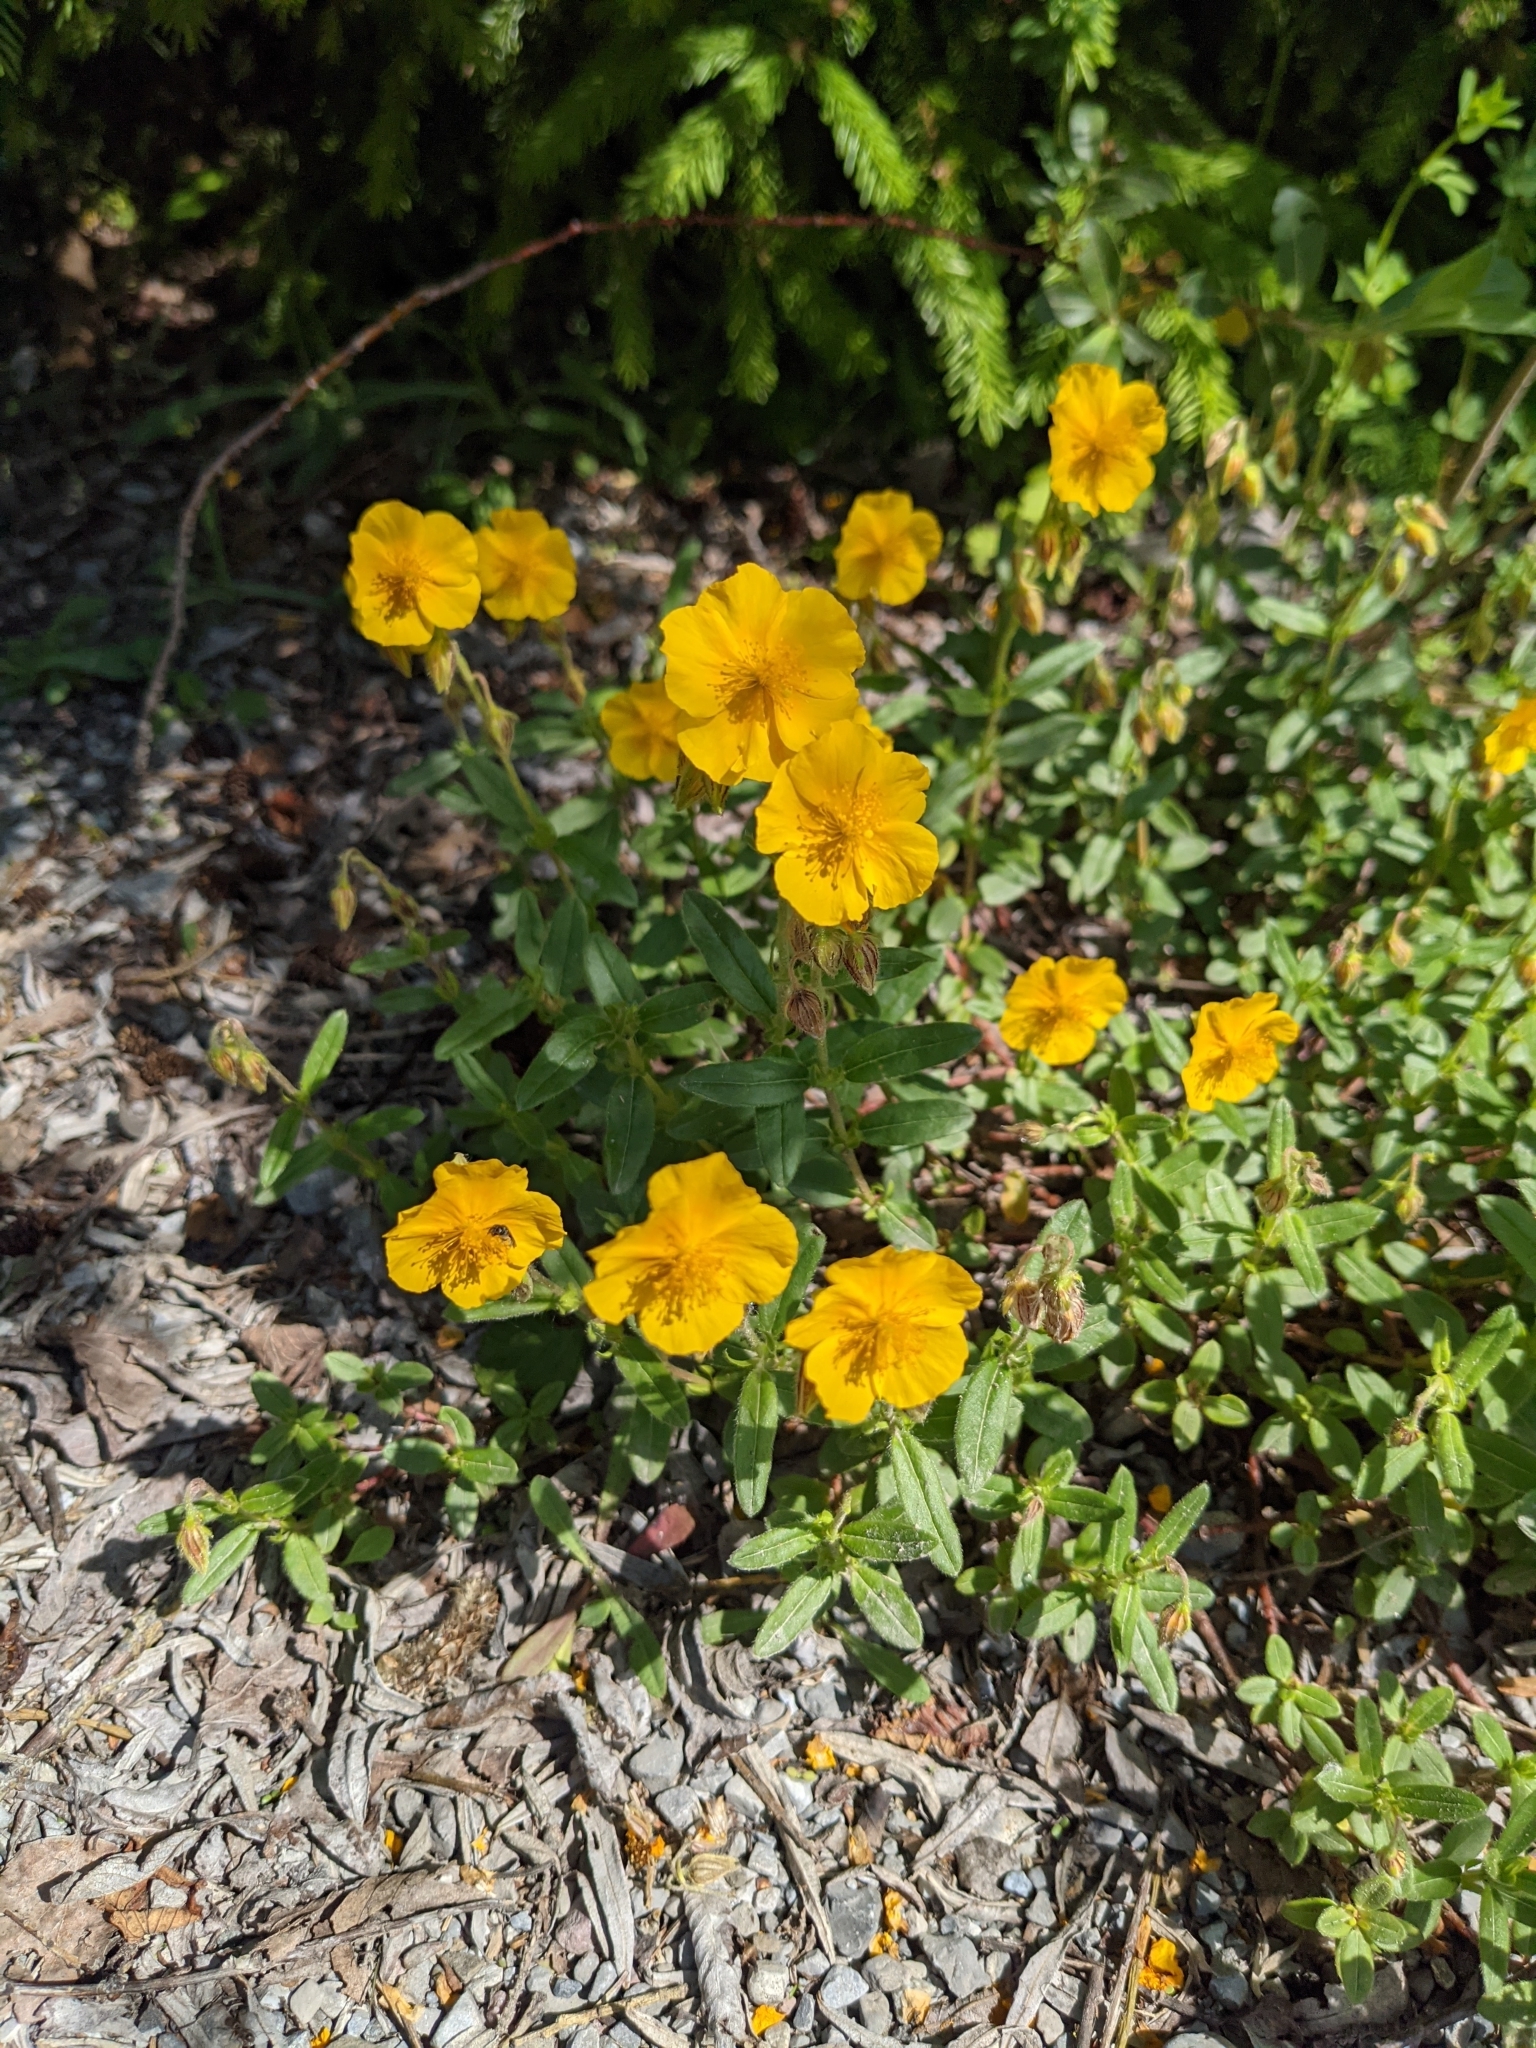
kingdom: Plantae
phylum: Tracheophyta
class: Magnoliopsida
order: Malvales
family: Cistaceae
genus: Helianthemum
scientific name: Helianthemum nummularium
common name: Common rock-rose
